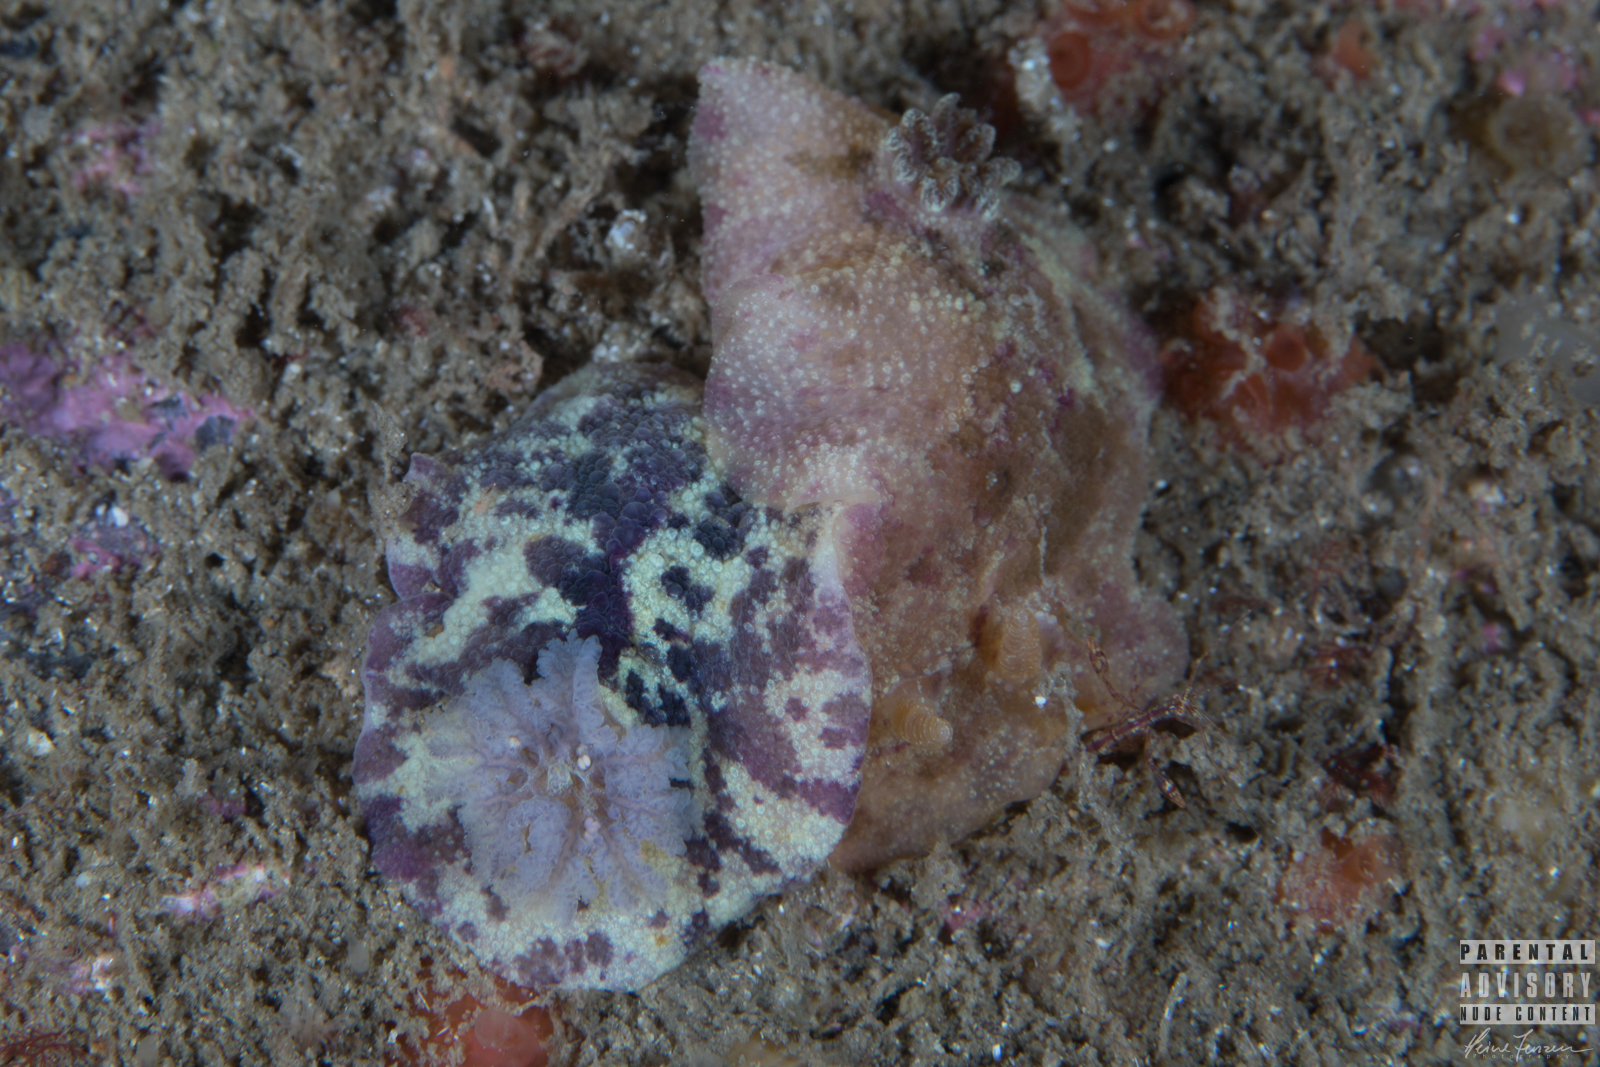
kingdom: Animalia
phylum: Mollusca
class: Gastropoda
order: Nudibranchia
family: Dorididae
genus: Doris
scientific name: Doris pseudoargus
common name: Sea lemon
